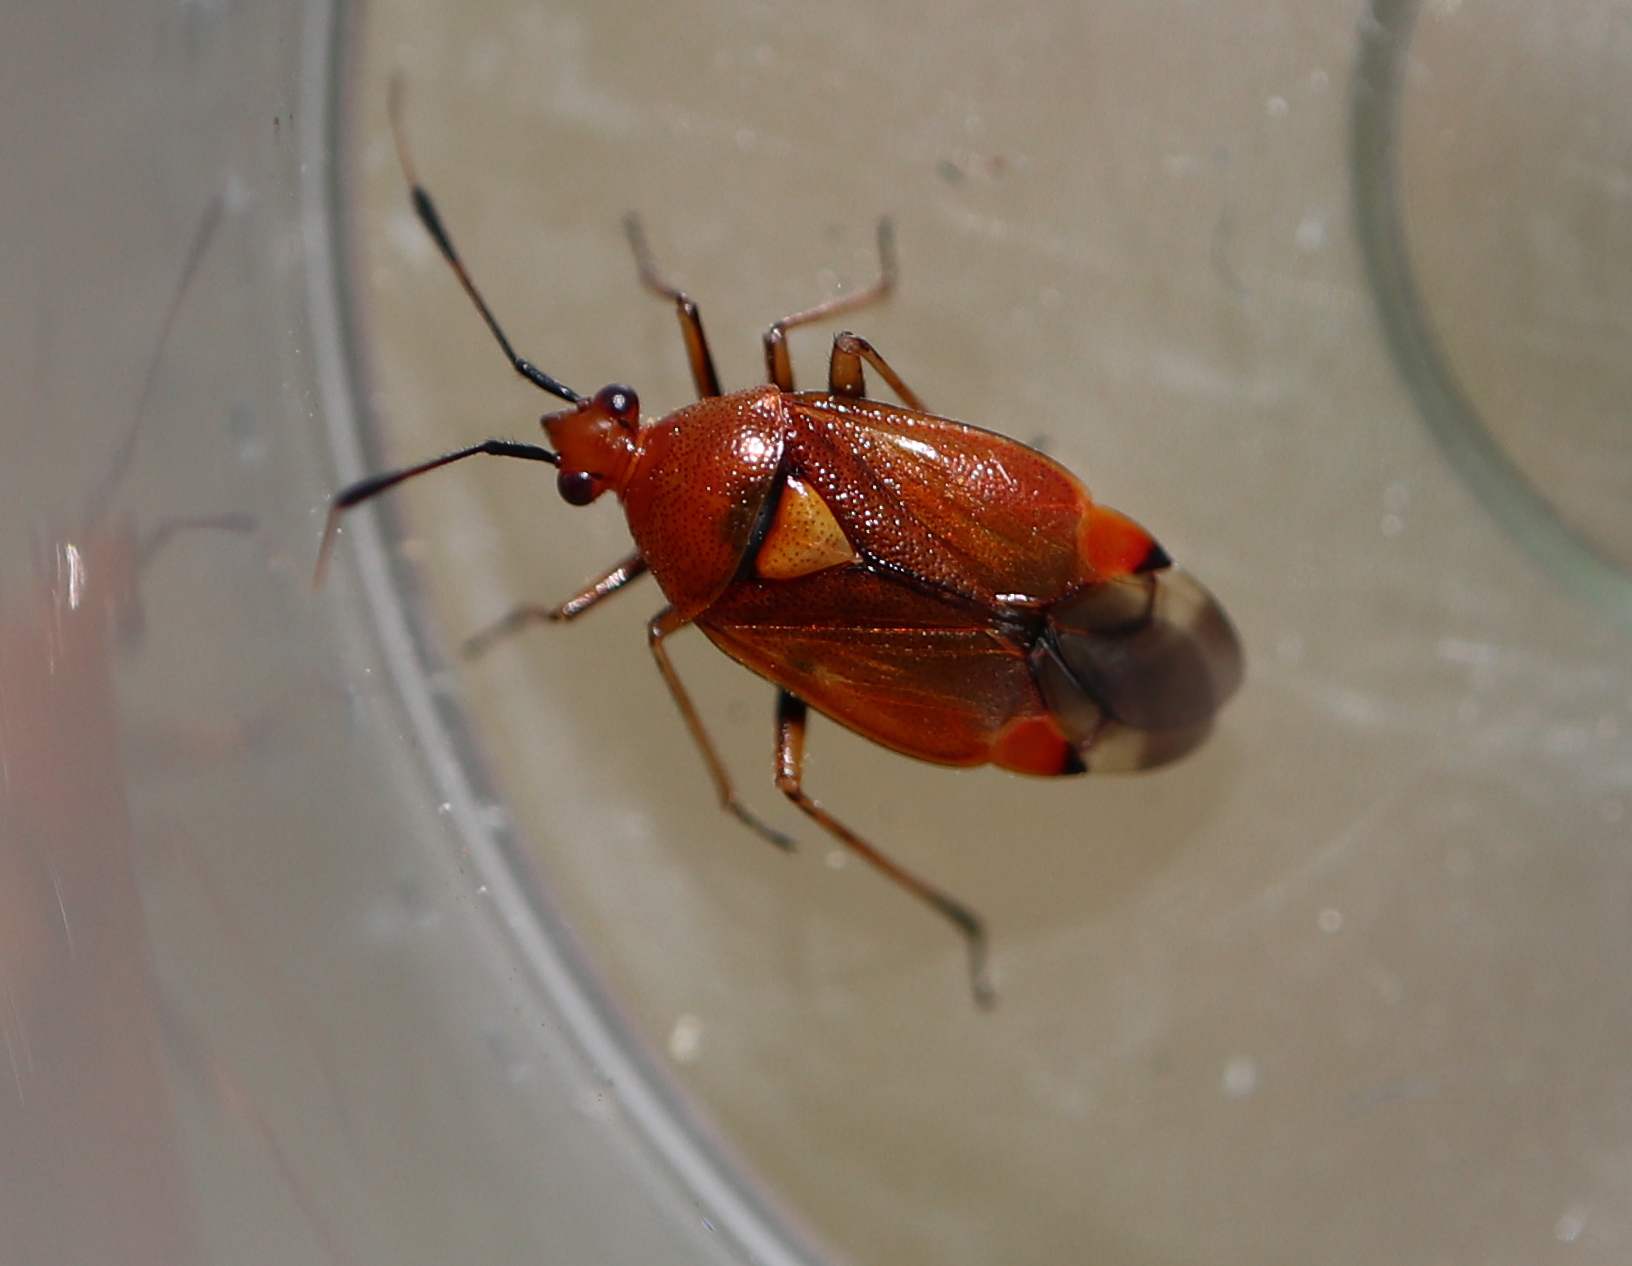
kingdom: Animalia
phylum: Arthropoda
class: Insecta
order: Hemiptera
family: Miridae
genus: Deraeocoris
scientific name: Deraeocoris ruber
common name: Plant bug
